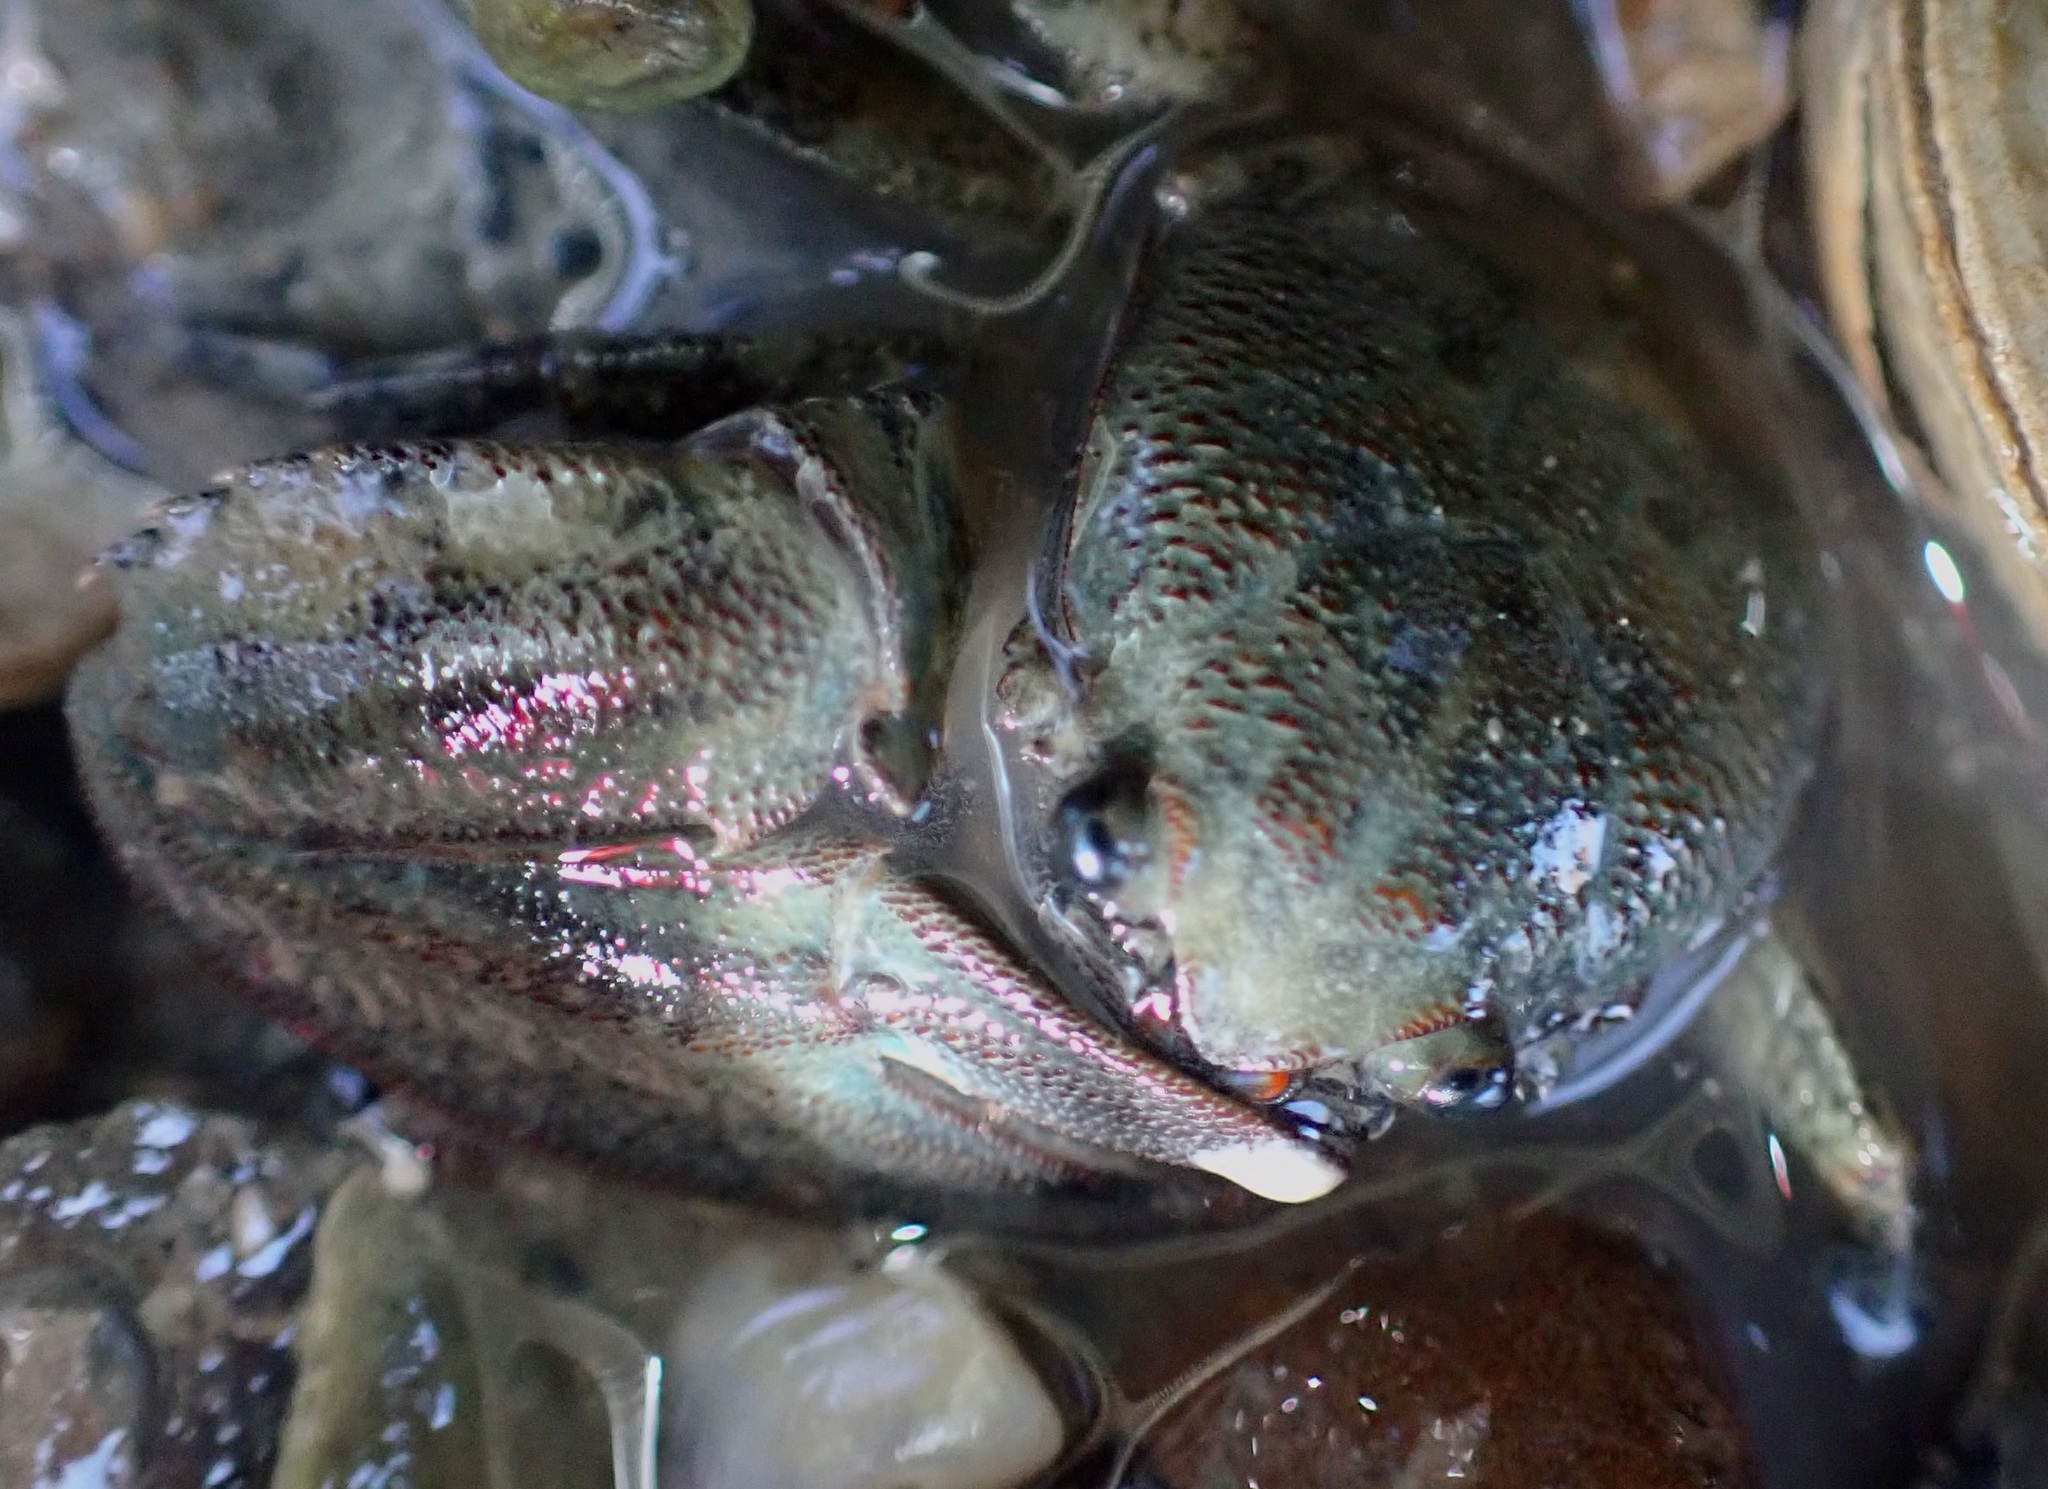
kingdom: Animalia
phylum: Arthropoda
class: Malacostraca
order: Decapoda
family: Porcellanidae
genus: Petrolisthes
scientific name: Petrolisthes elongatus
